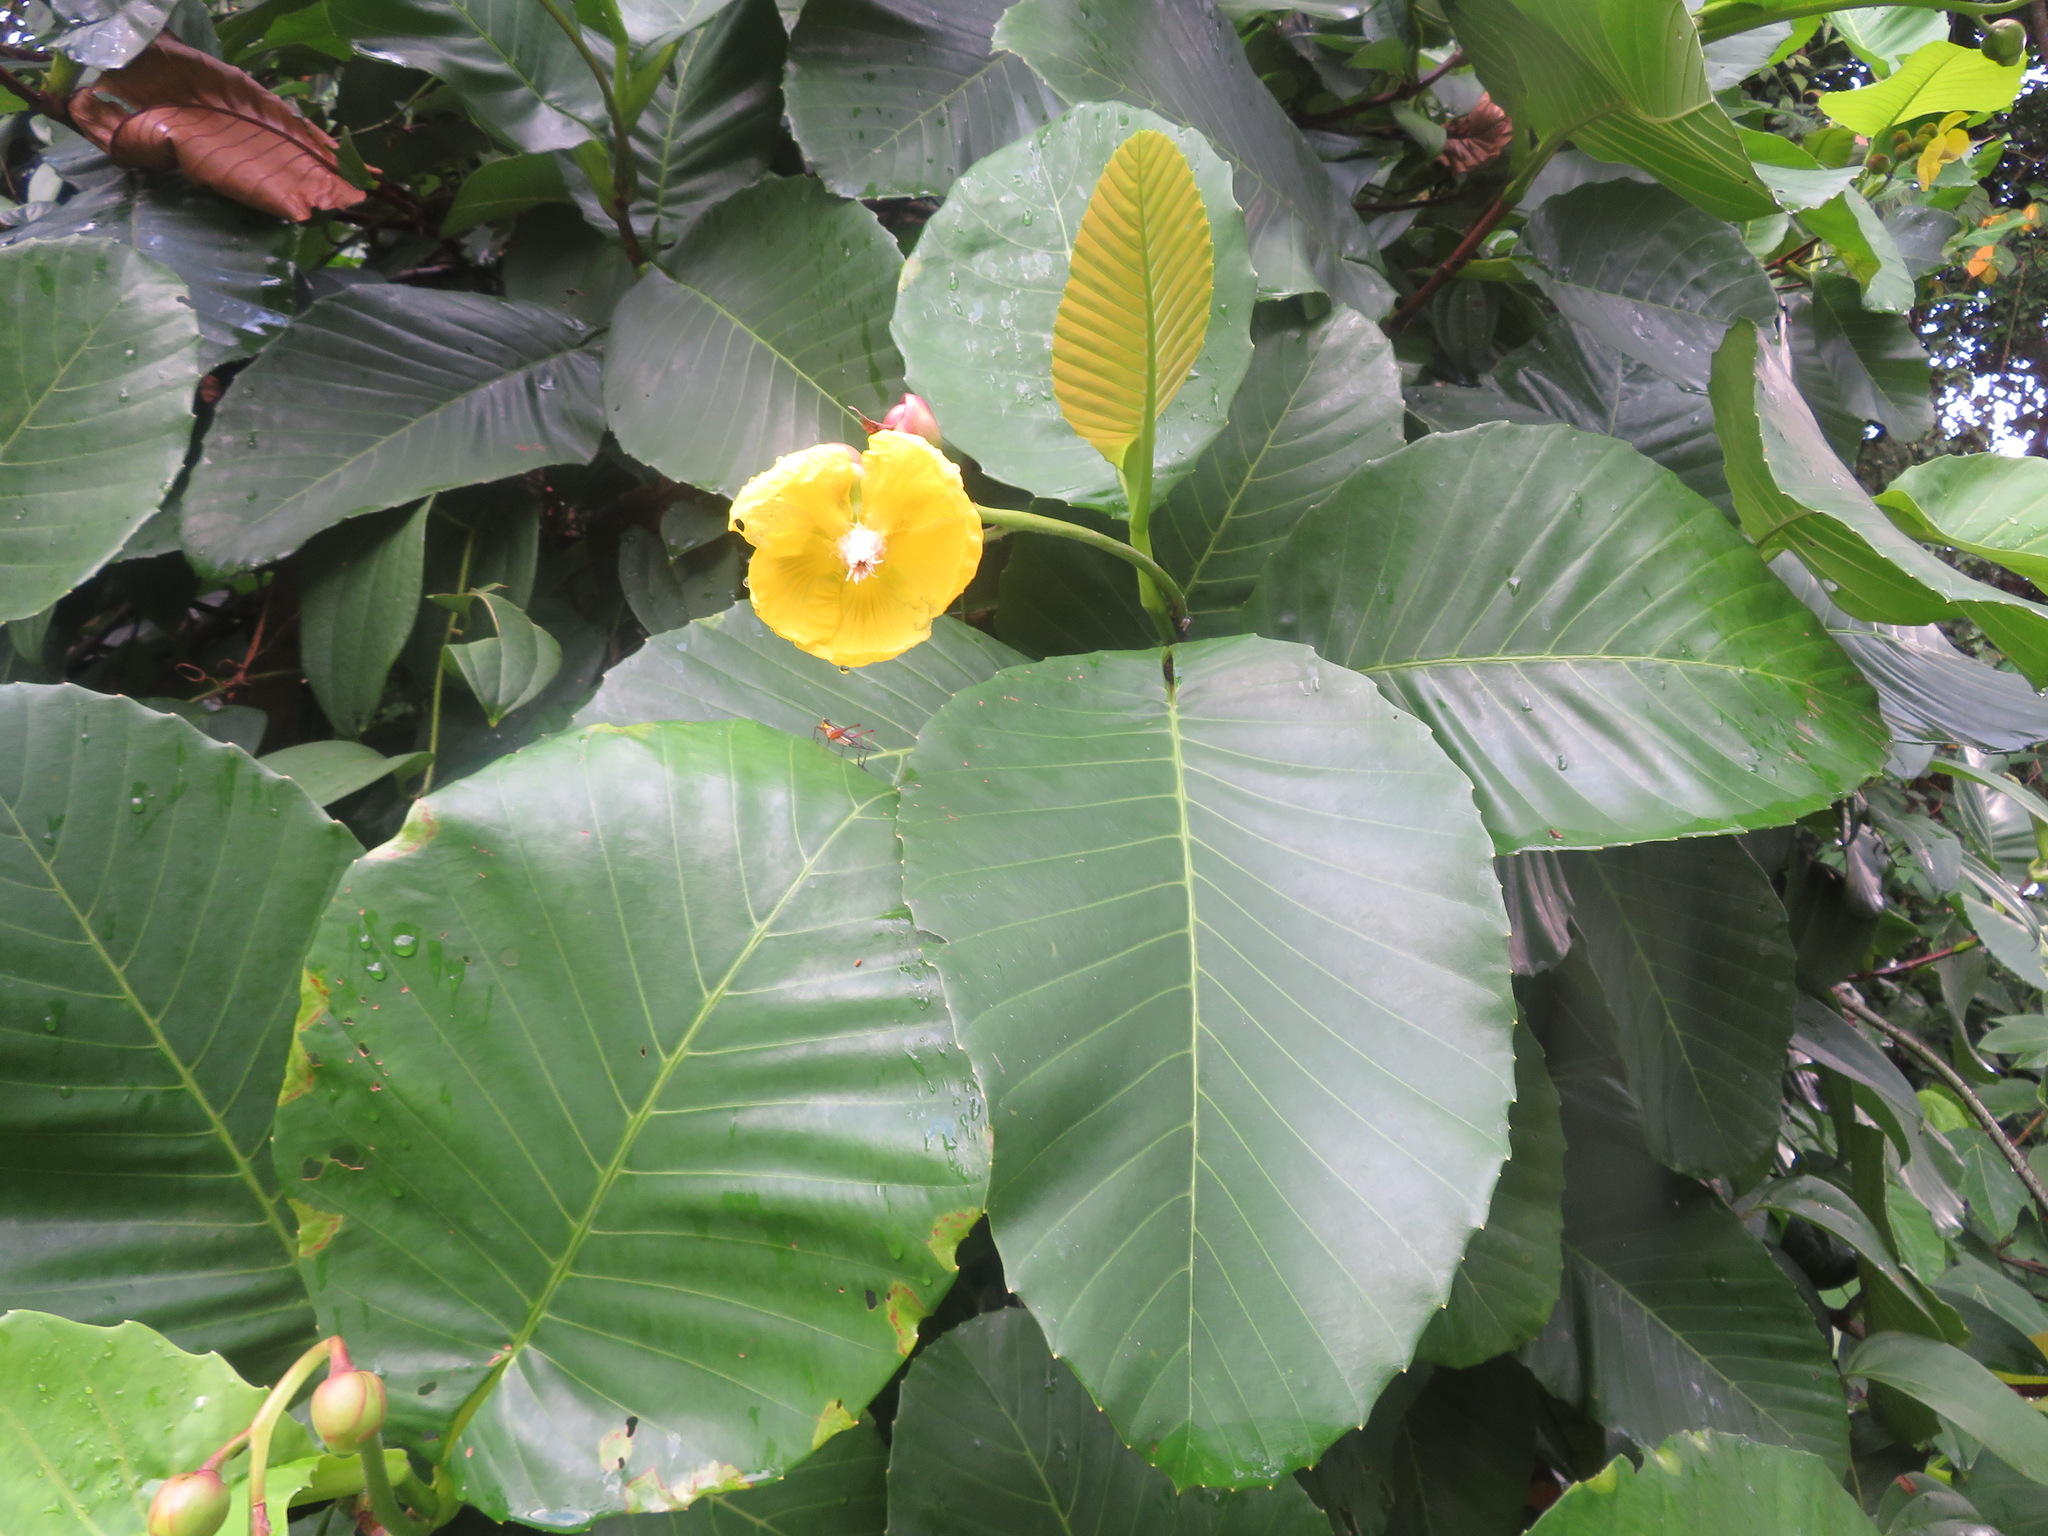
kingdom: Plantae
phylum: Tracheophyta
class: Magnoliopsida
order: Dilleniales
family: Dilleniaceae
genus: Dillenia
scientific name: Dillenia suffruticosa
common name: Shrubby dillenia
